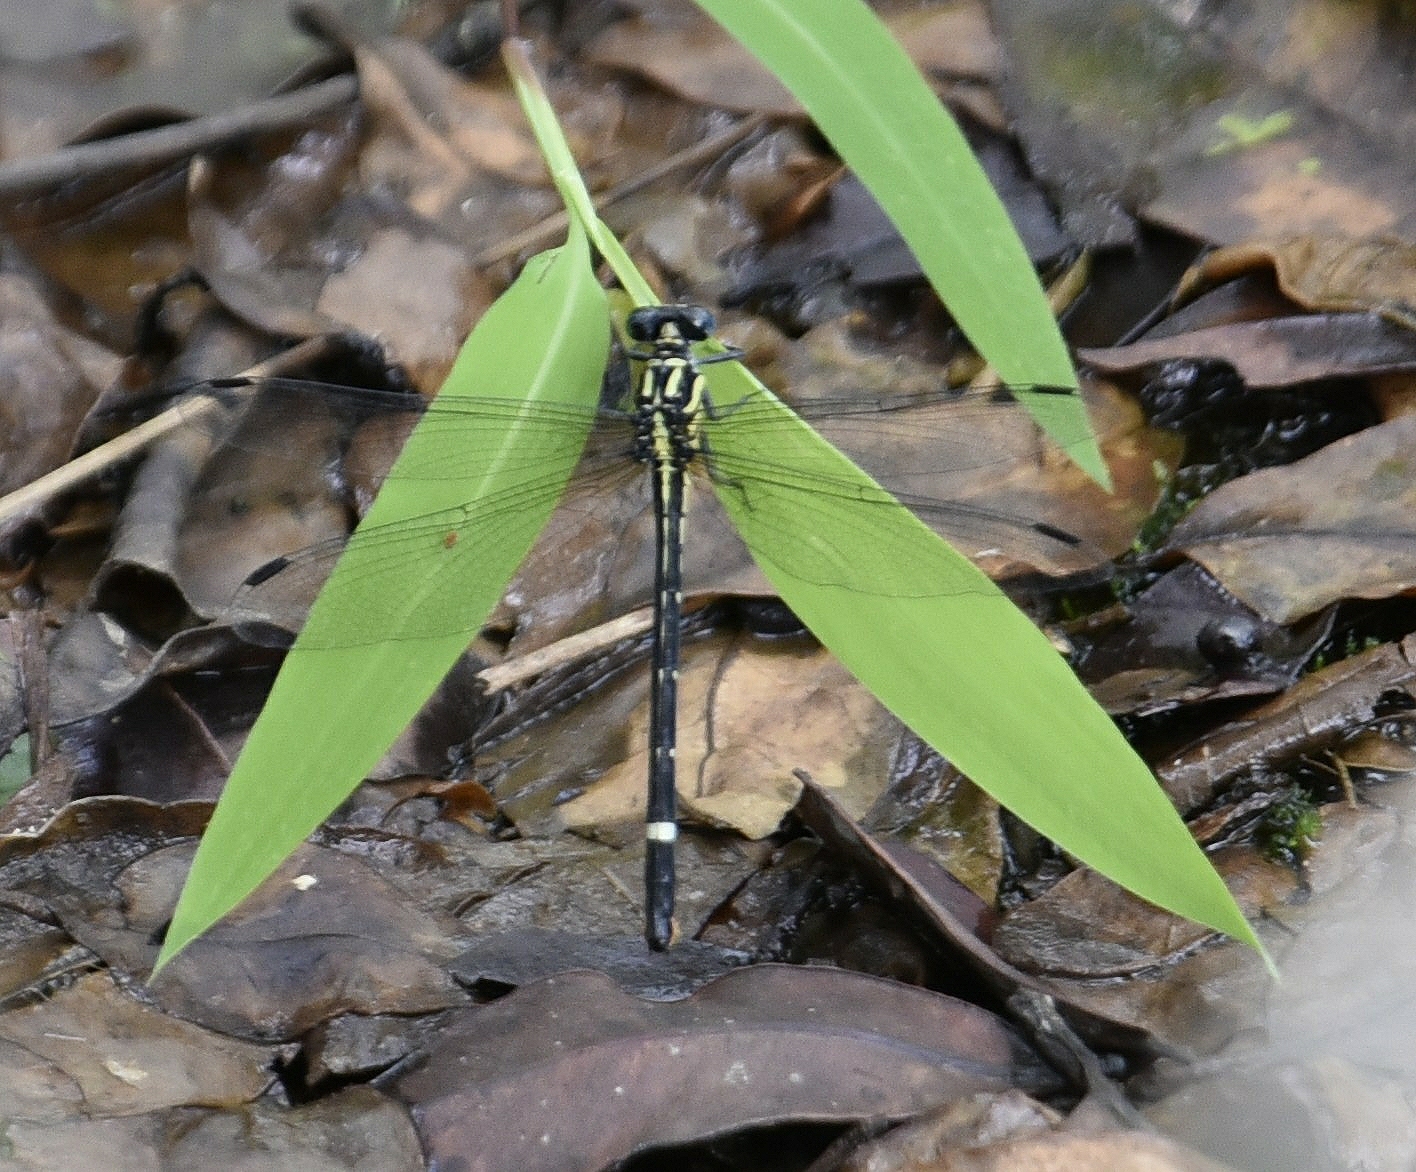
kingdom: Animalia
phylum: Arthropoda
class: Insecta
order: Odonata
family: Gomphidae
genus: Heliogomphus
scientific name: Heliogomphus promelas
